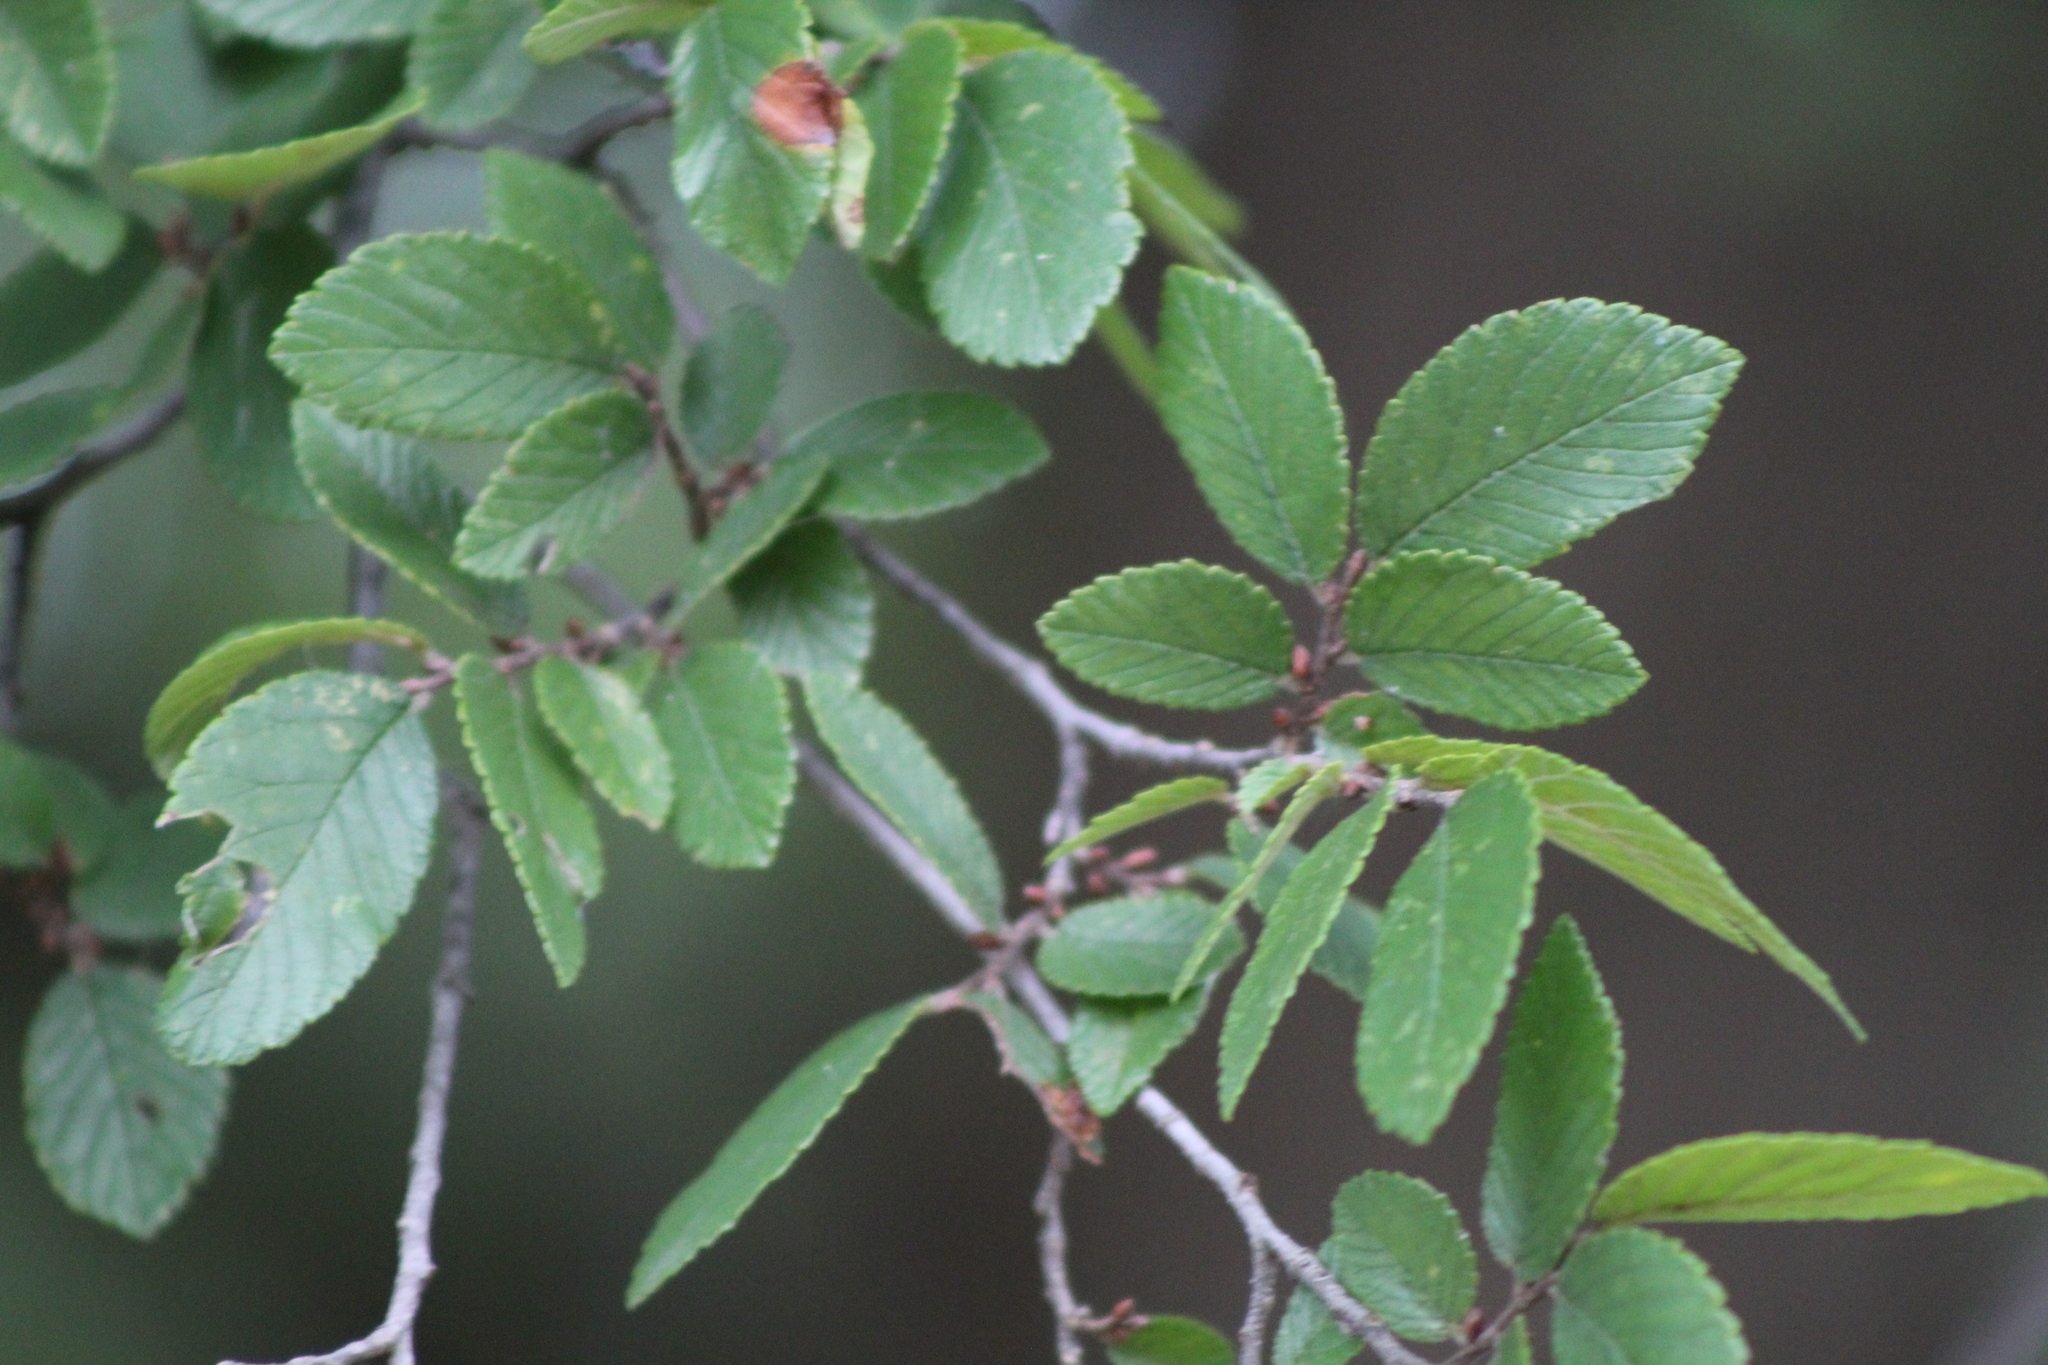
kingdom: Plantae
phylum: Tracheophyta
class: Magnoliopsida
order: Rosales
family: Ulmaceae
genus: Ulmus
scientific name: Ulmus crassifolia
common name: Basket elm
